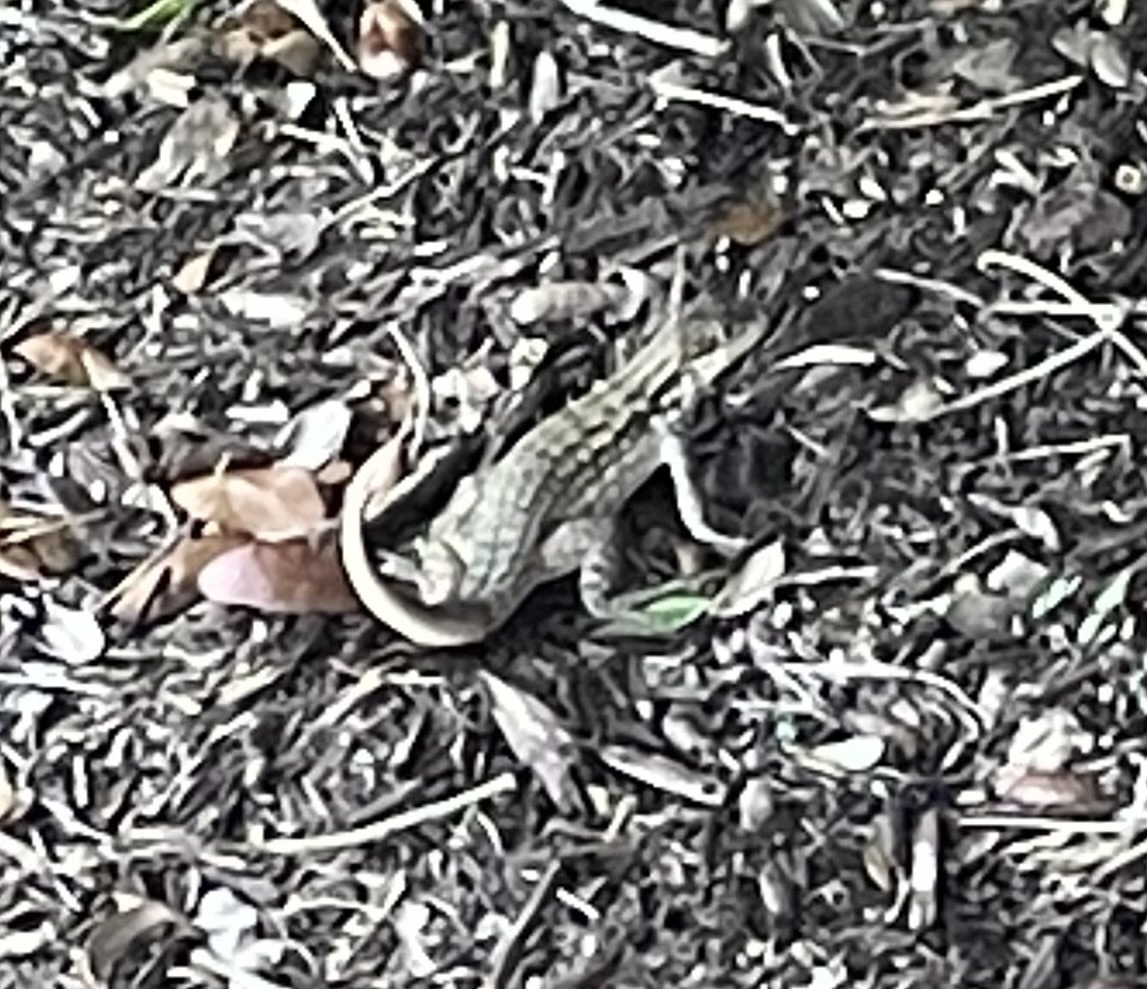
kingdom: Animalia
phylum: Chordata
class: Squamata
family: Leiocephalidae
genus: Leiocephalus
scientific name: Leiocephalus carinatus
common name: Northern curly-tailed lizard
